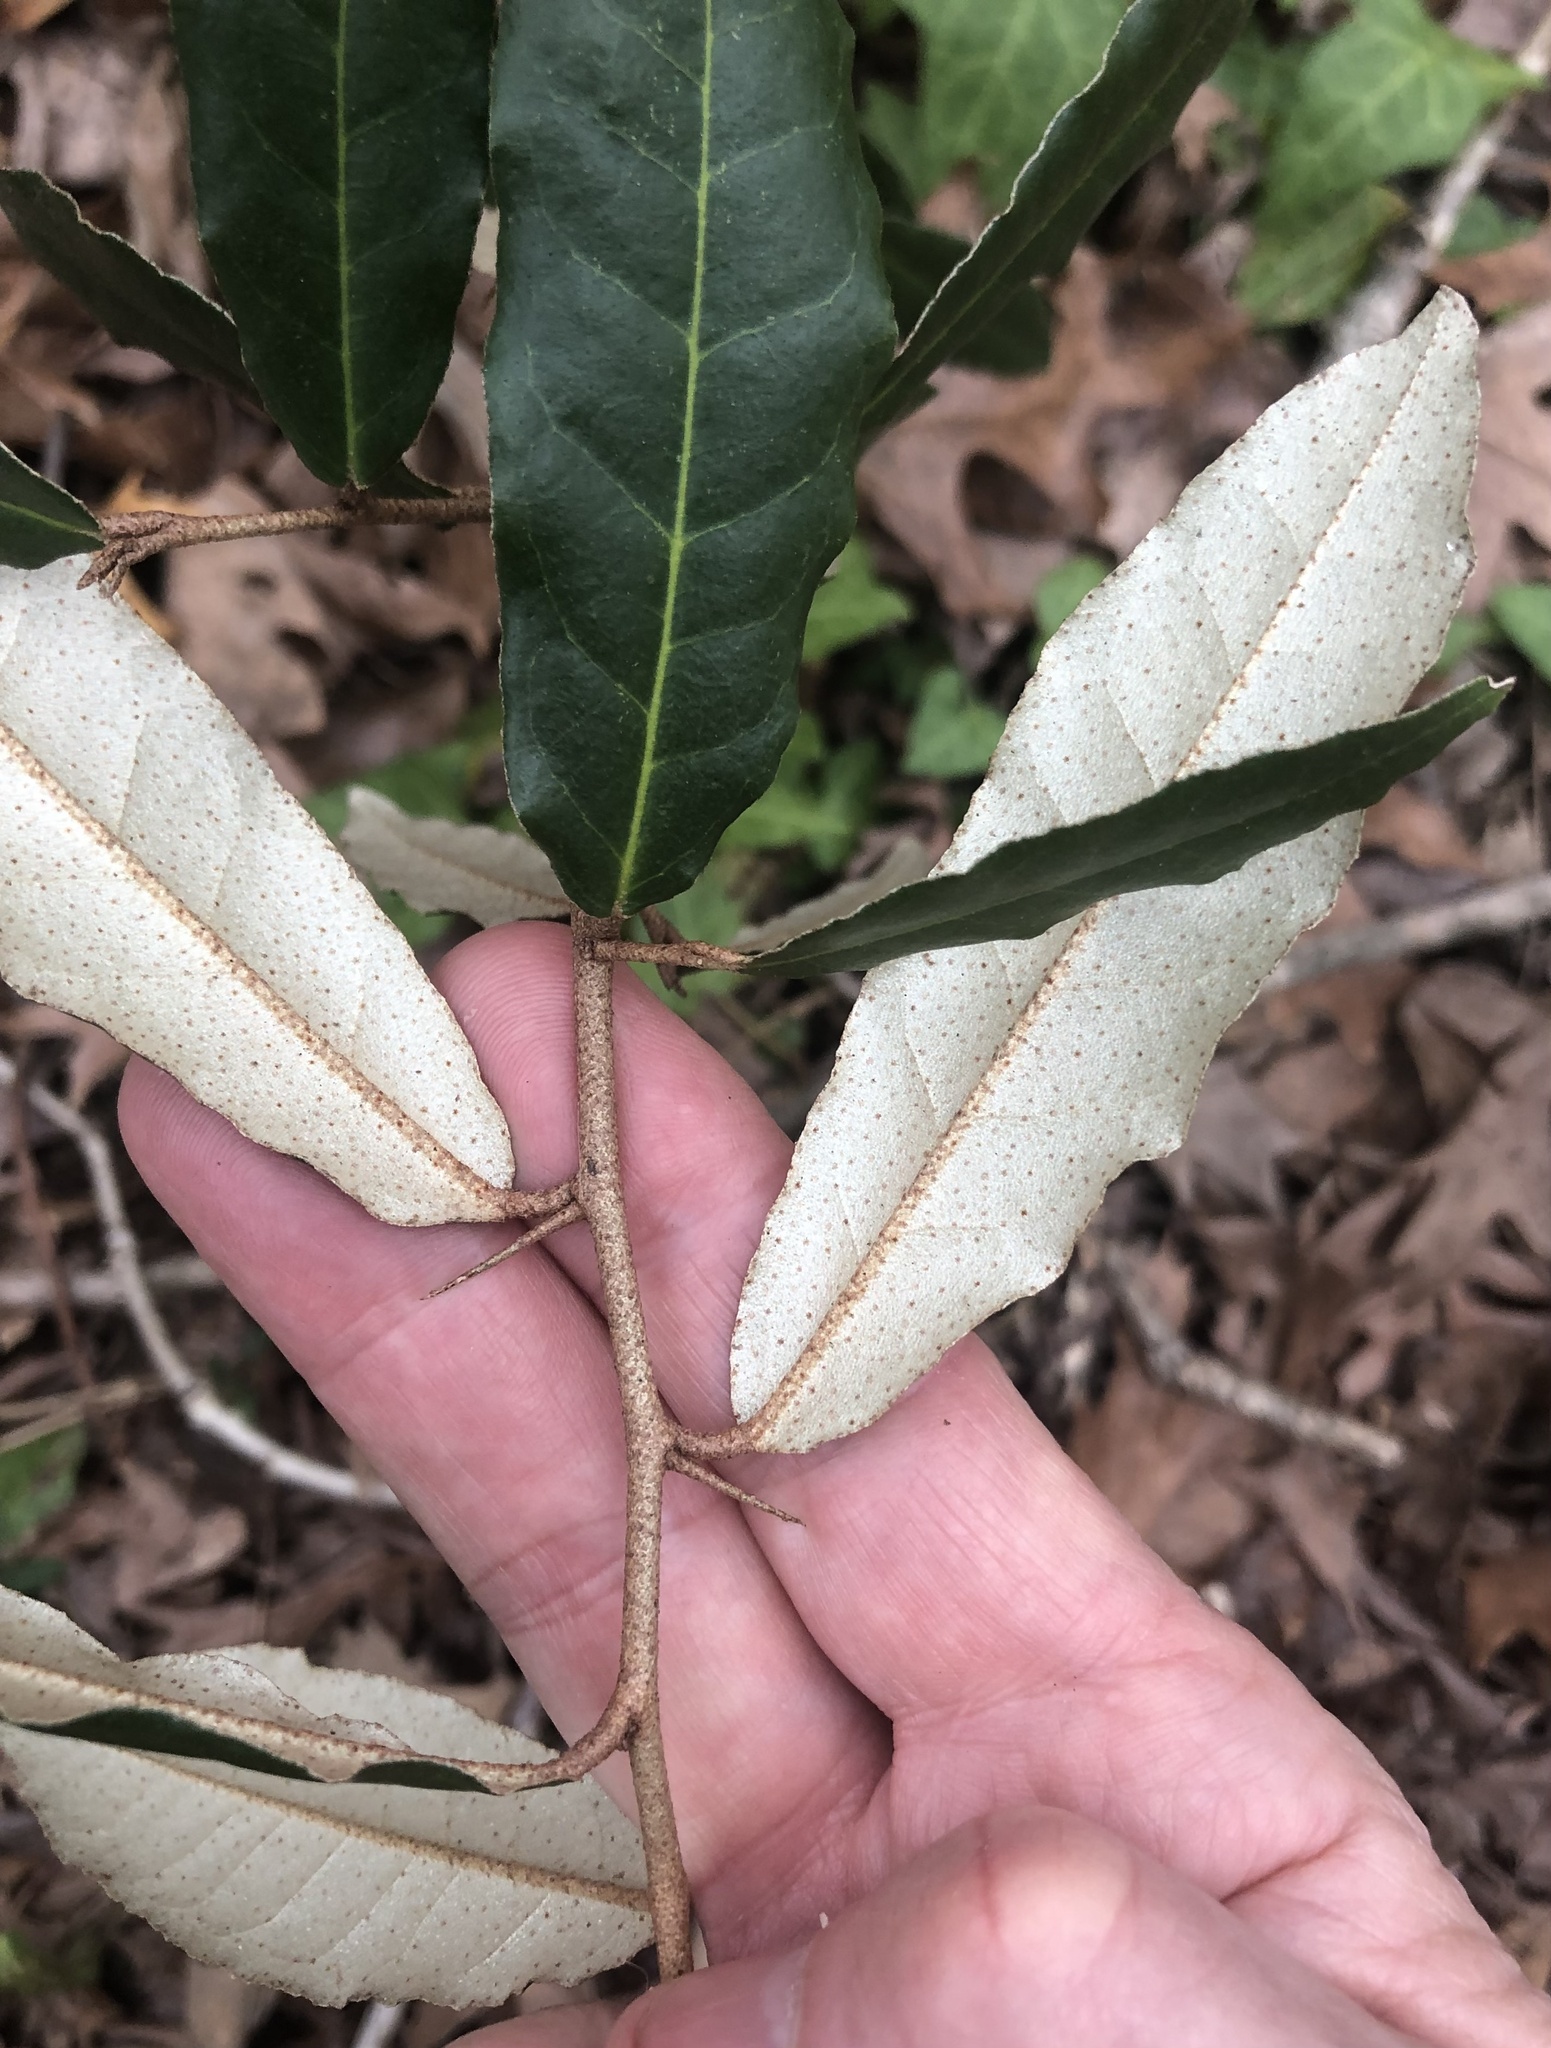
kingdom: Plantae
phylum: Tracheophyta
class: Magnoliopsida
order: Rosales
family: Elaeagnaceae
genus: Elaeagnus
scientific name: Elaeagnus pungens
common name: Spiny oleaster
